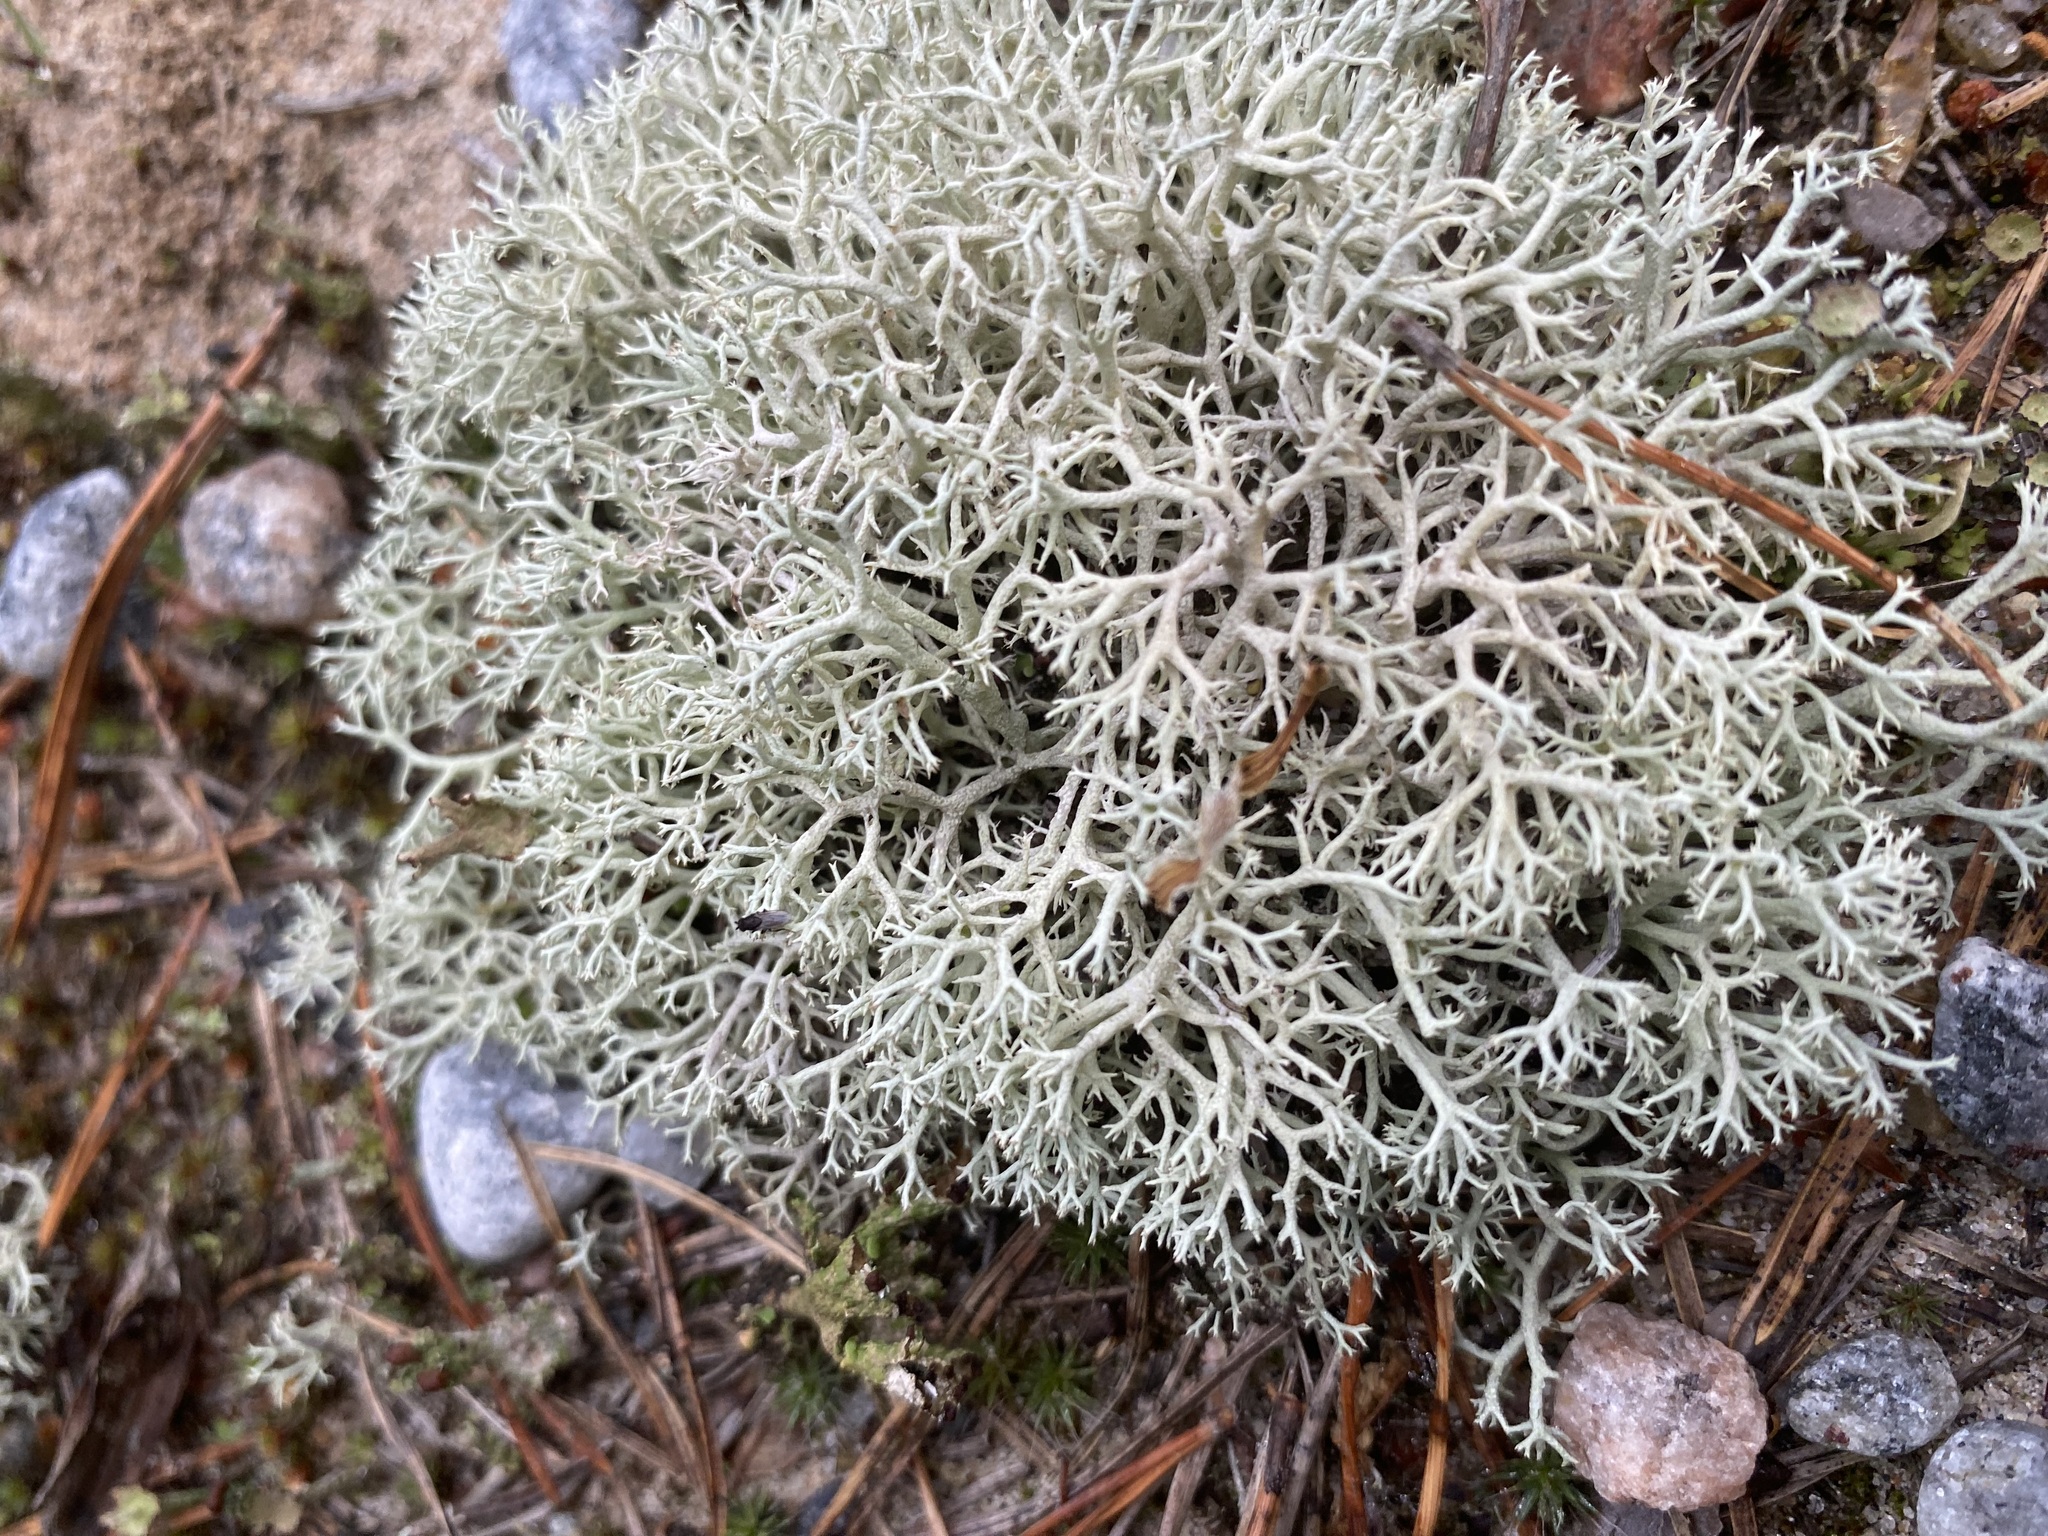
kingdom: Fungi
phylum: Ascomycota
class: Lecanoromycetes
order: Lecanorales
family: Cladoniaceae
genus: Cladonia
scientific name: Cladonia rangiferina
